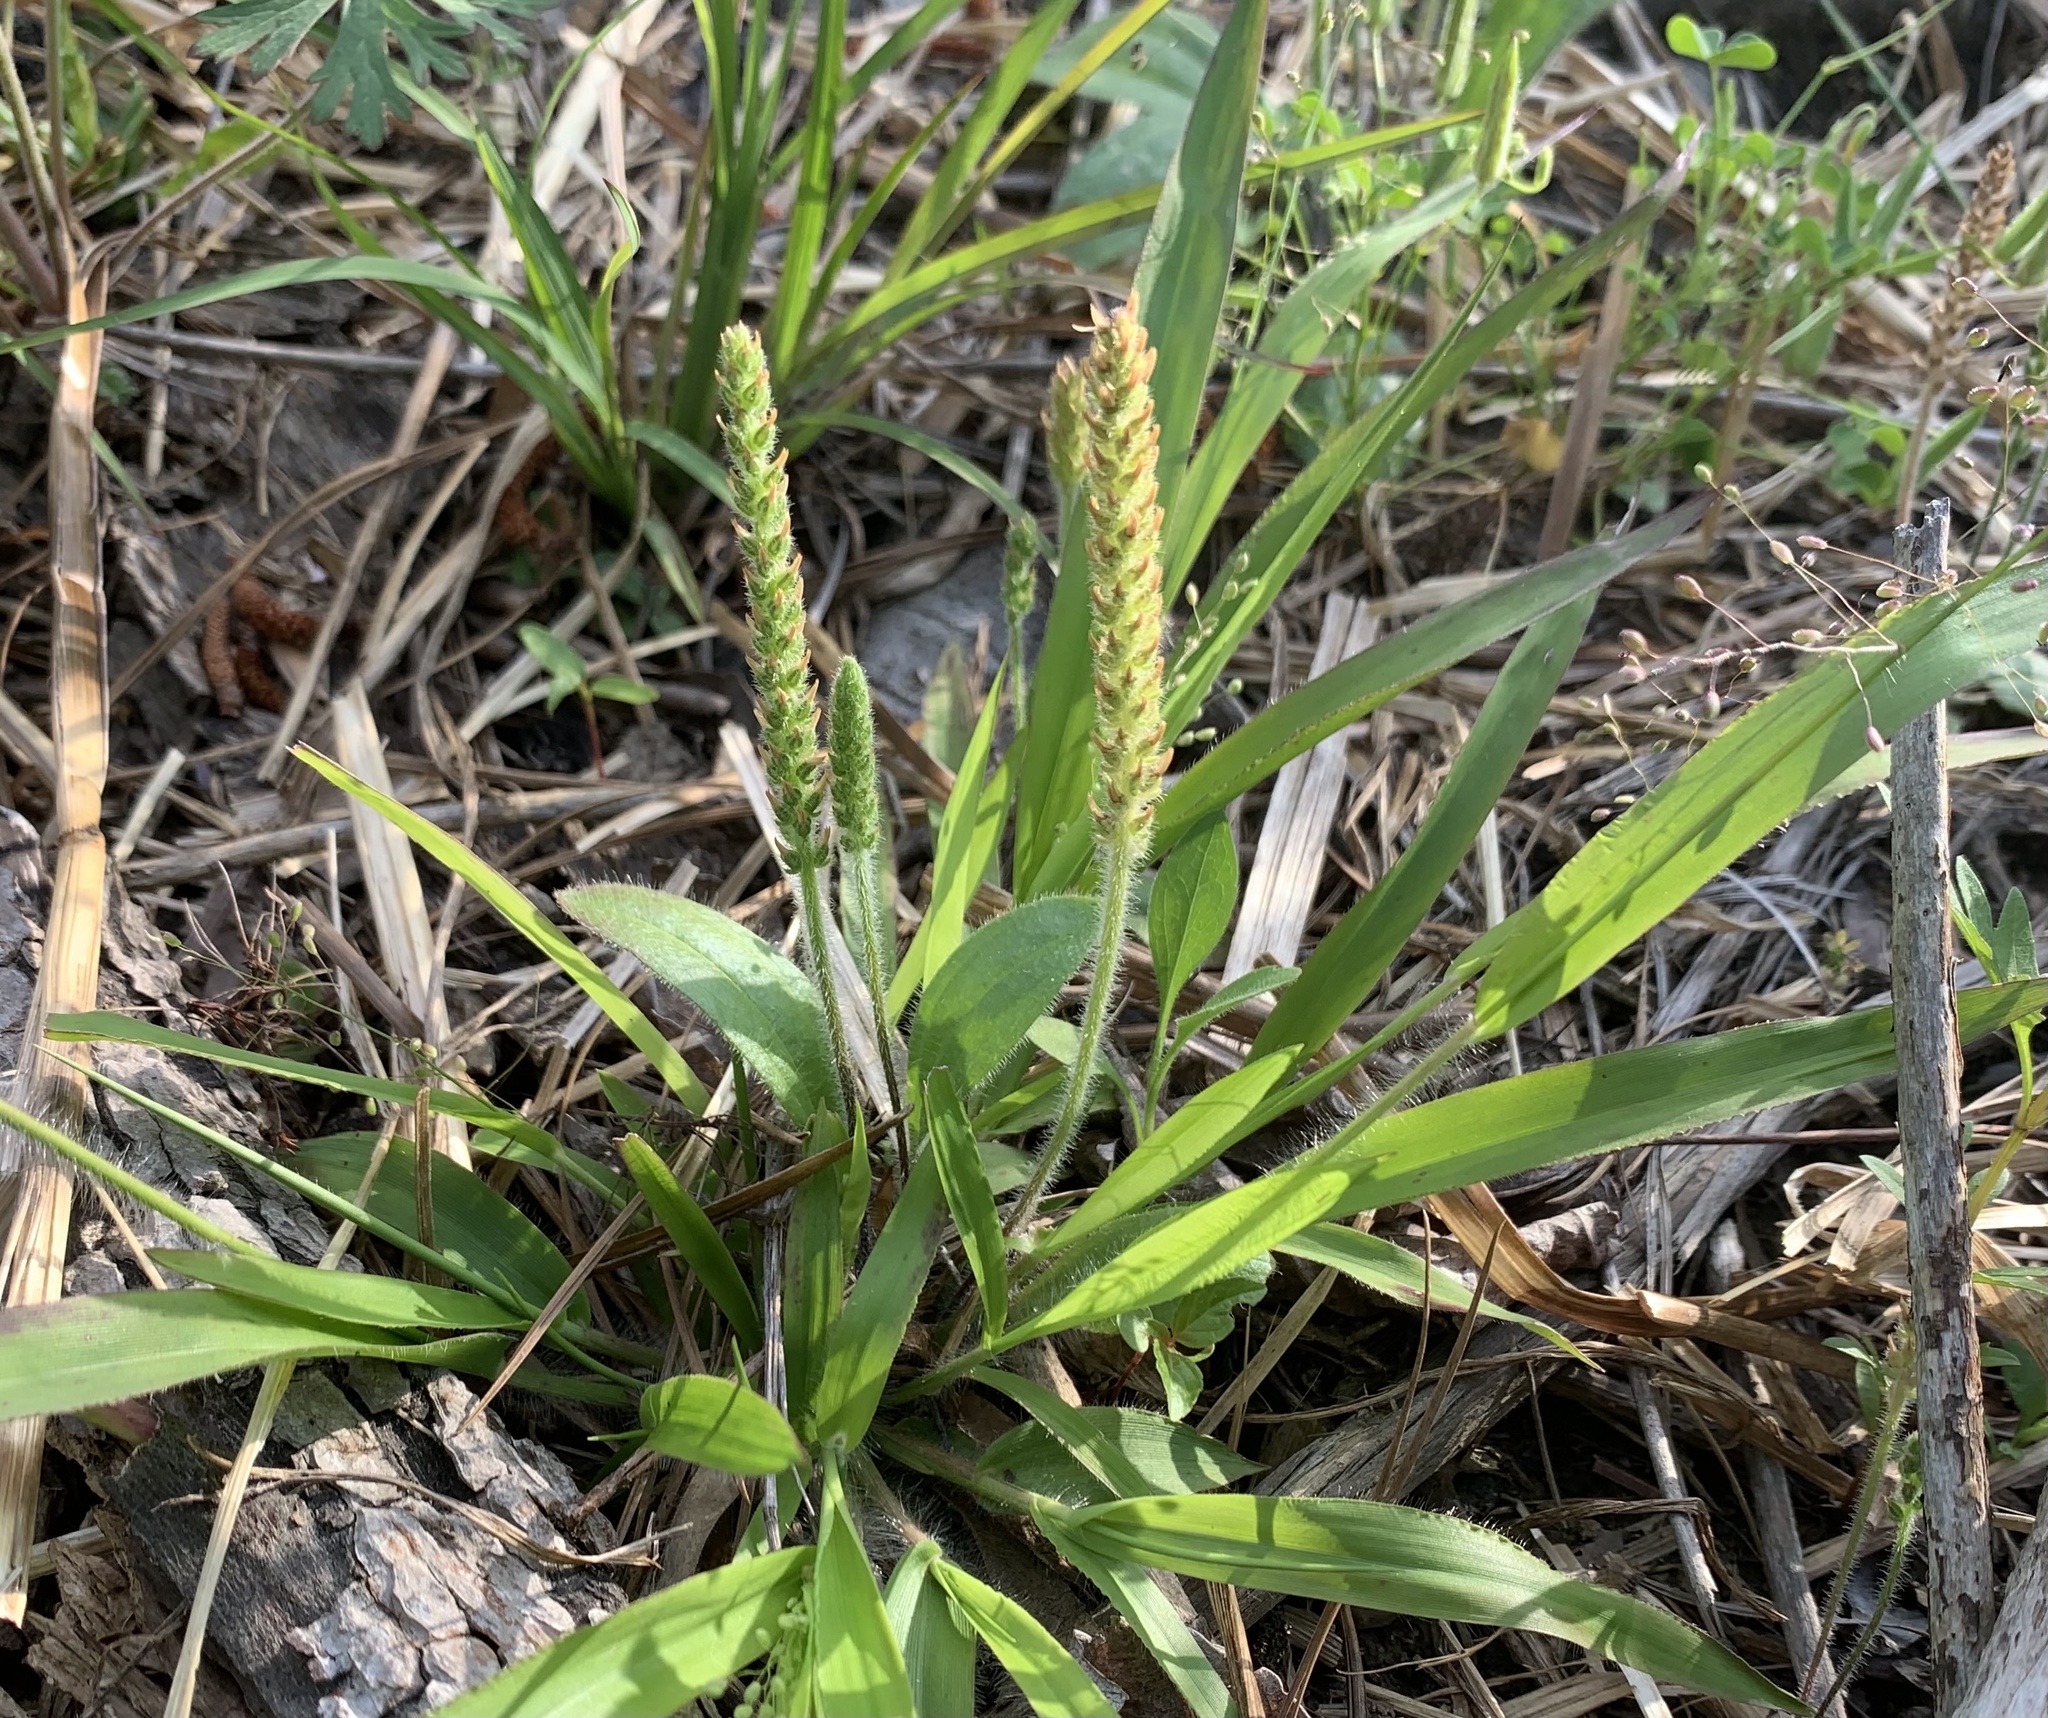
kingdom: Plantae
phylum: Tracheophyta
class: Magnoliopsida
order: Lamiales
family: Plantaginaceae
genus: Plantago
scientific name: Plantago virginica
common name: Hoary plantain
